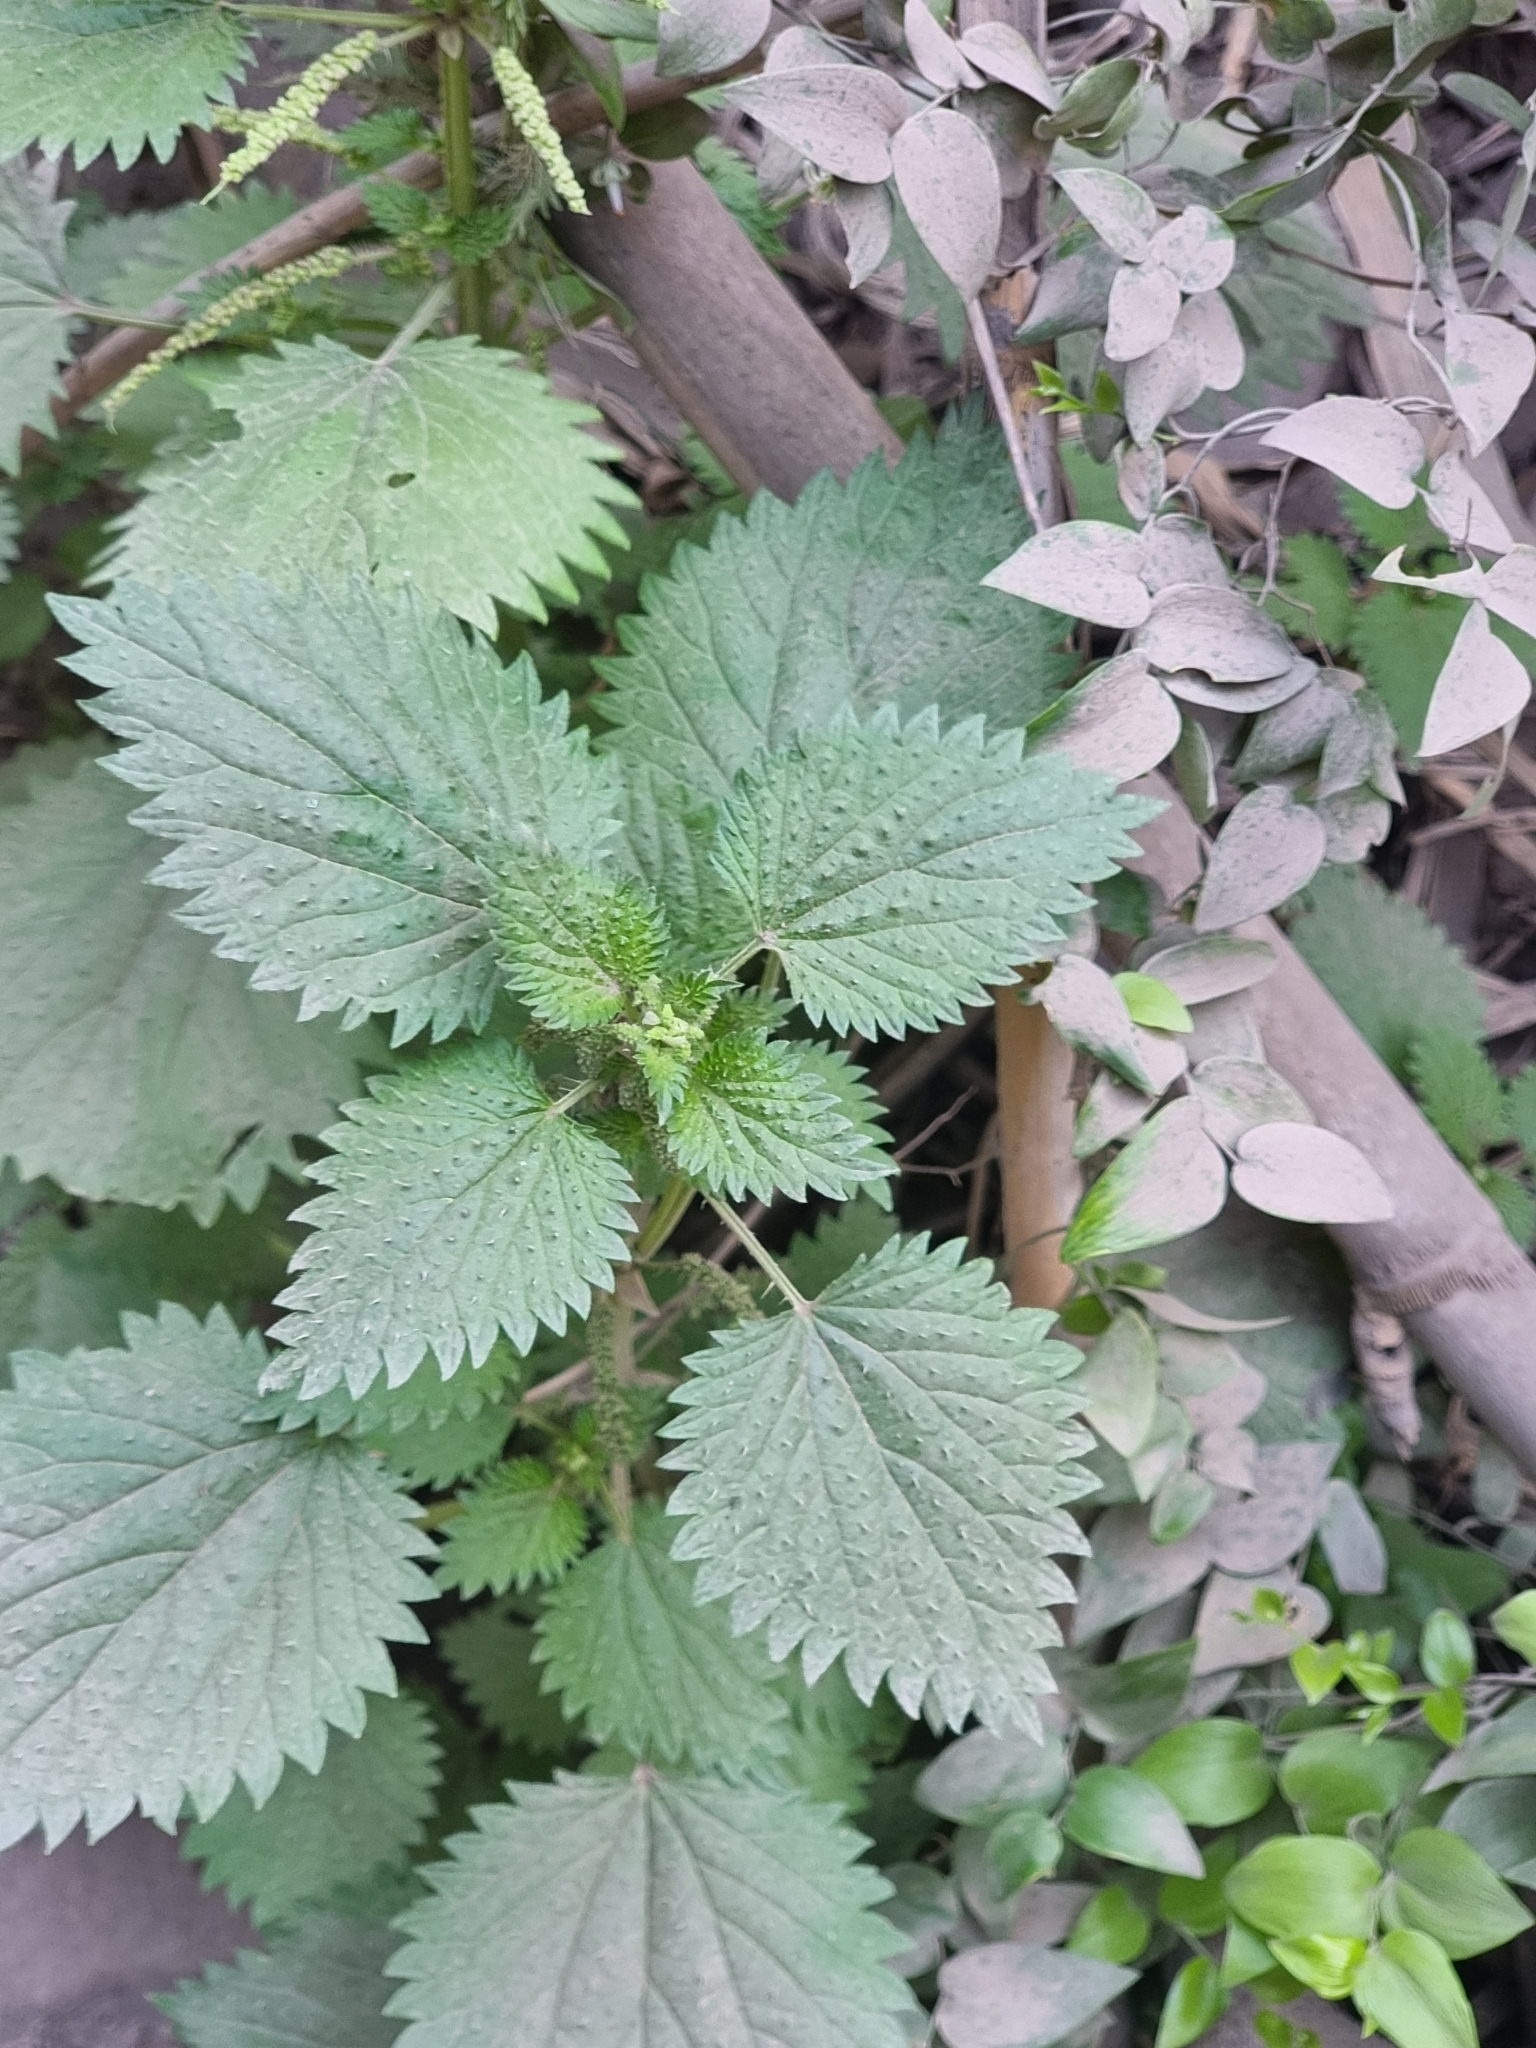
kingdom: Plantae
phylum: Tracheophyta
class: Magnoliopsida
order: Rosales
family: Urticaceae
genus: Urtica
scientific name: Urtica membranacea
